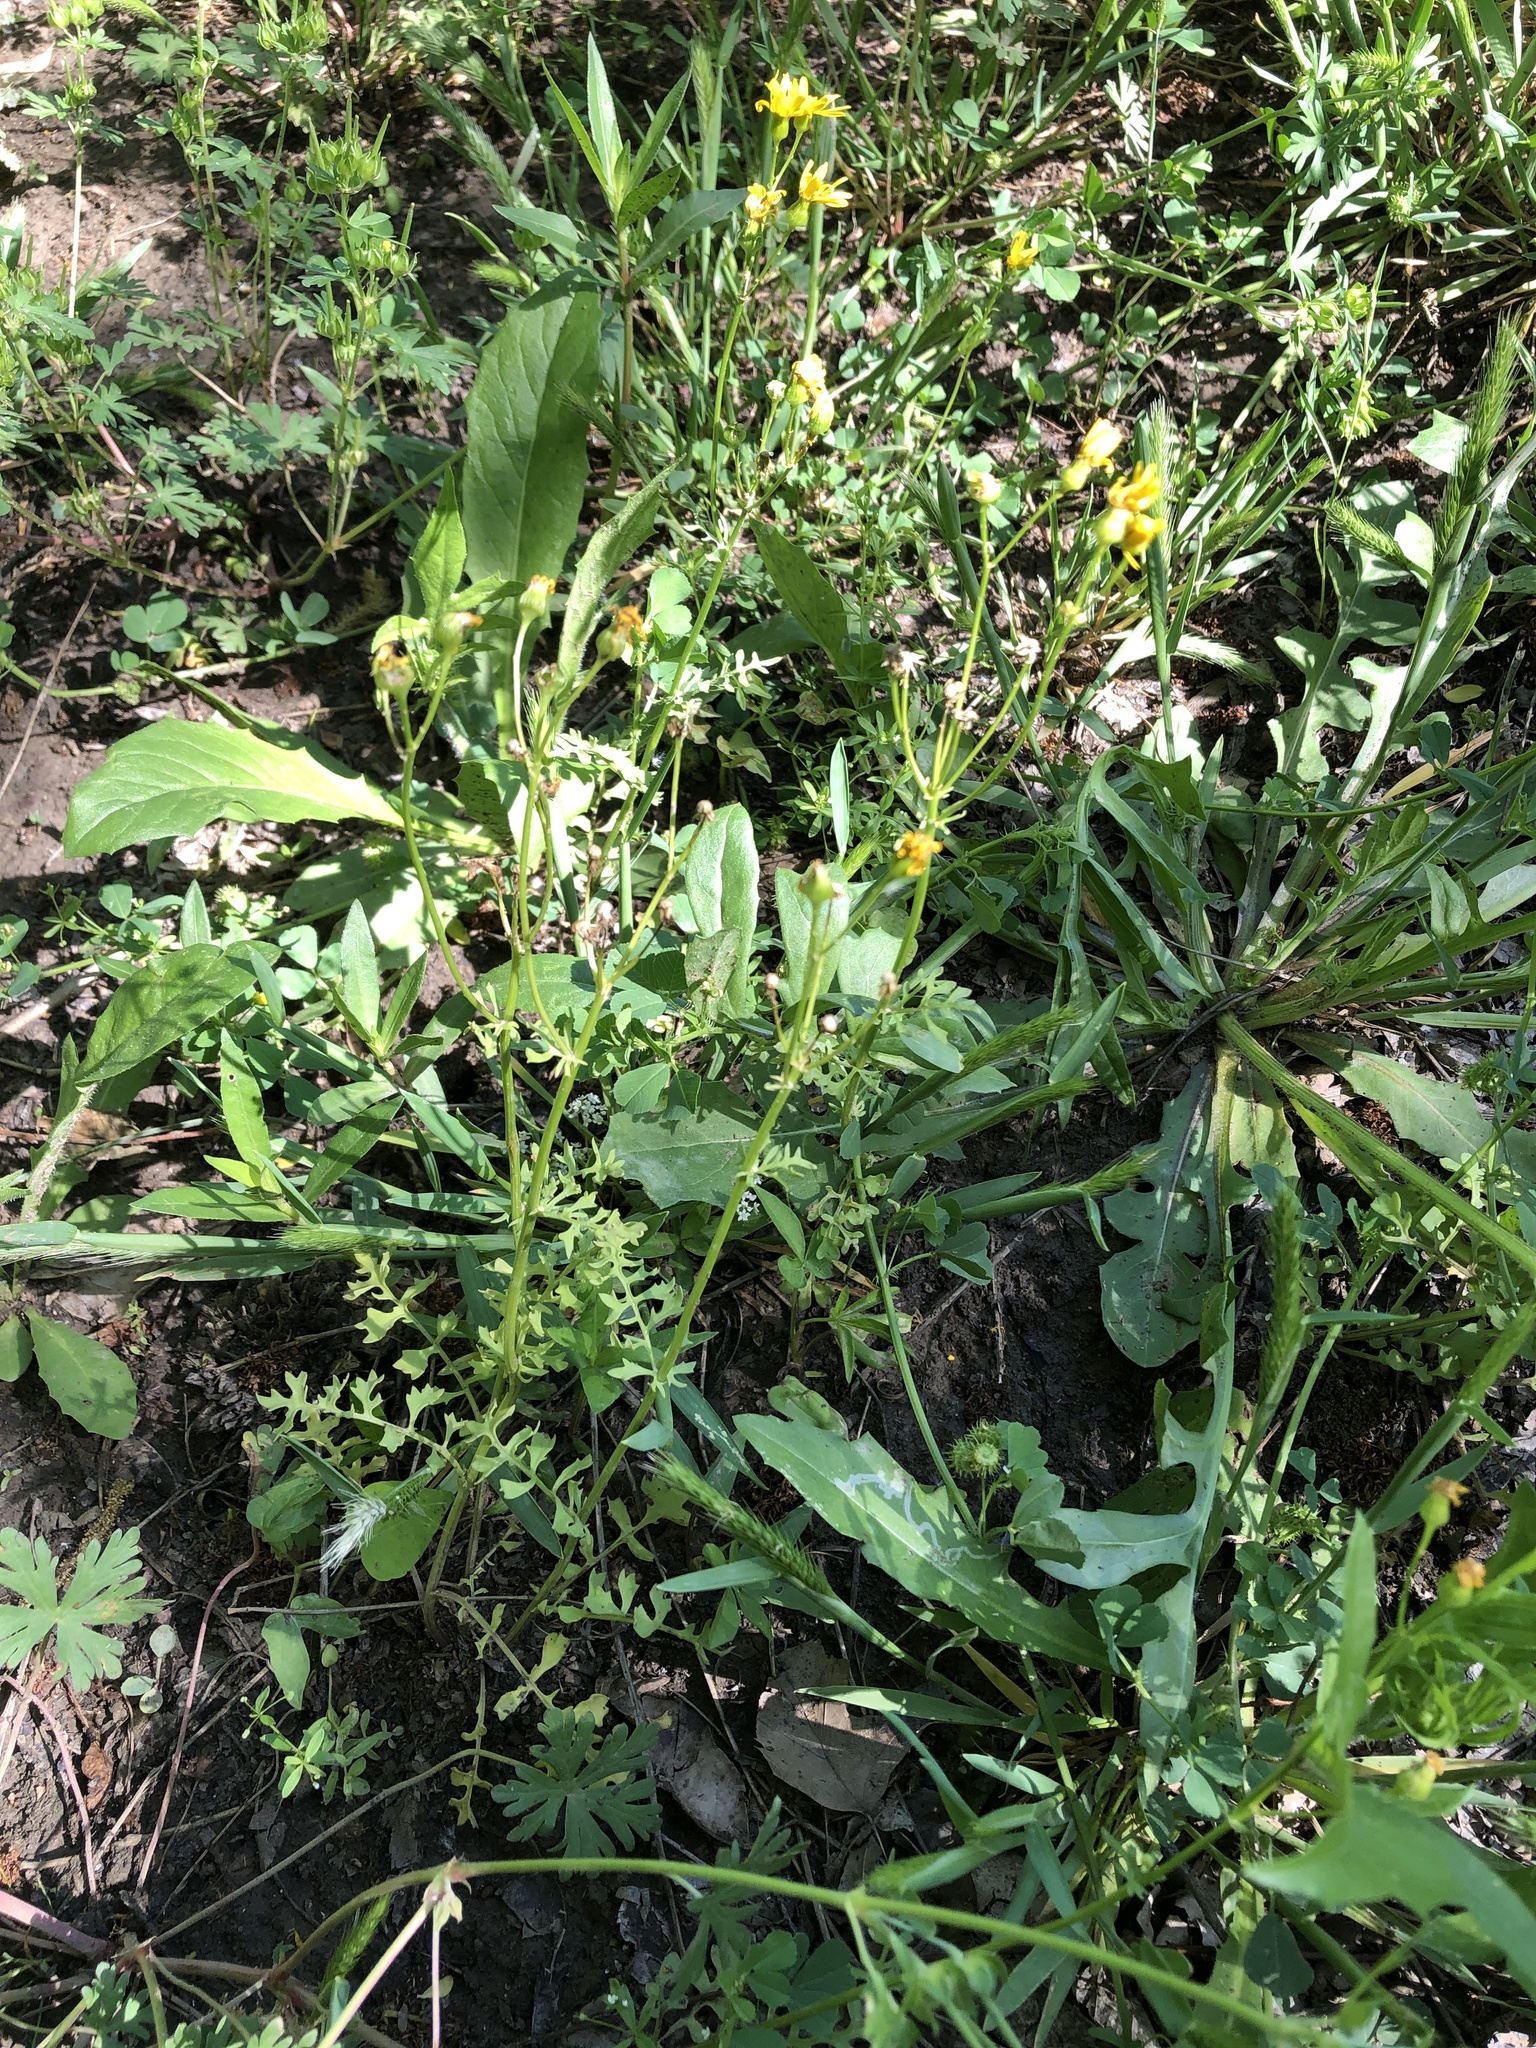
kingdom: Plantae
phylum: Tracheophyta
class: Magnoliopsida
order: Asterales
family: Asteraceae
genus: Packera
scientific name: Packera tampicana
